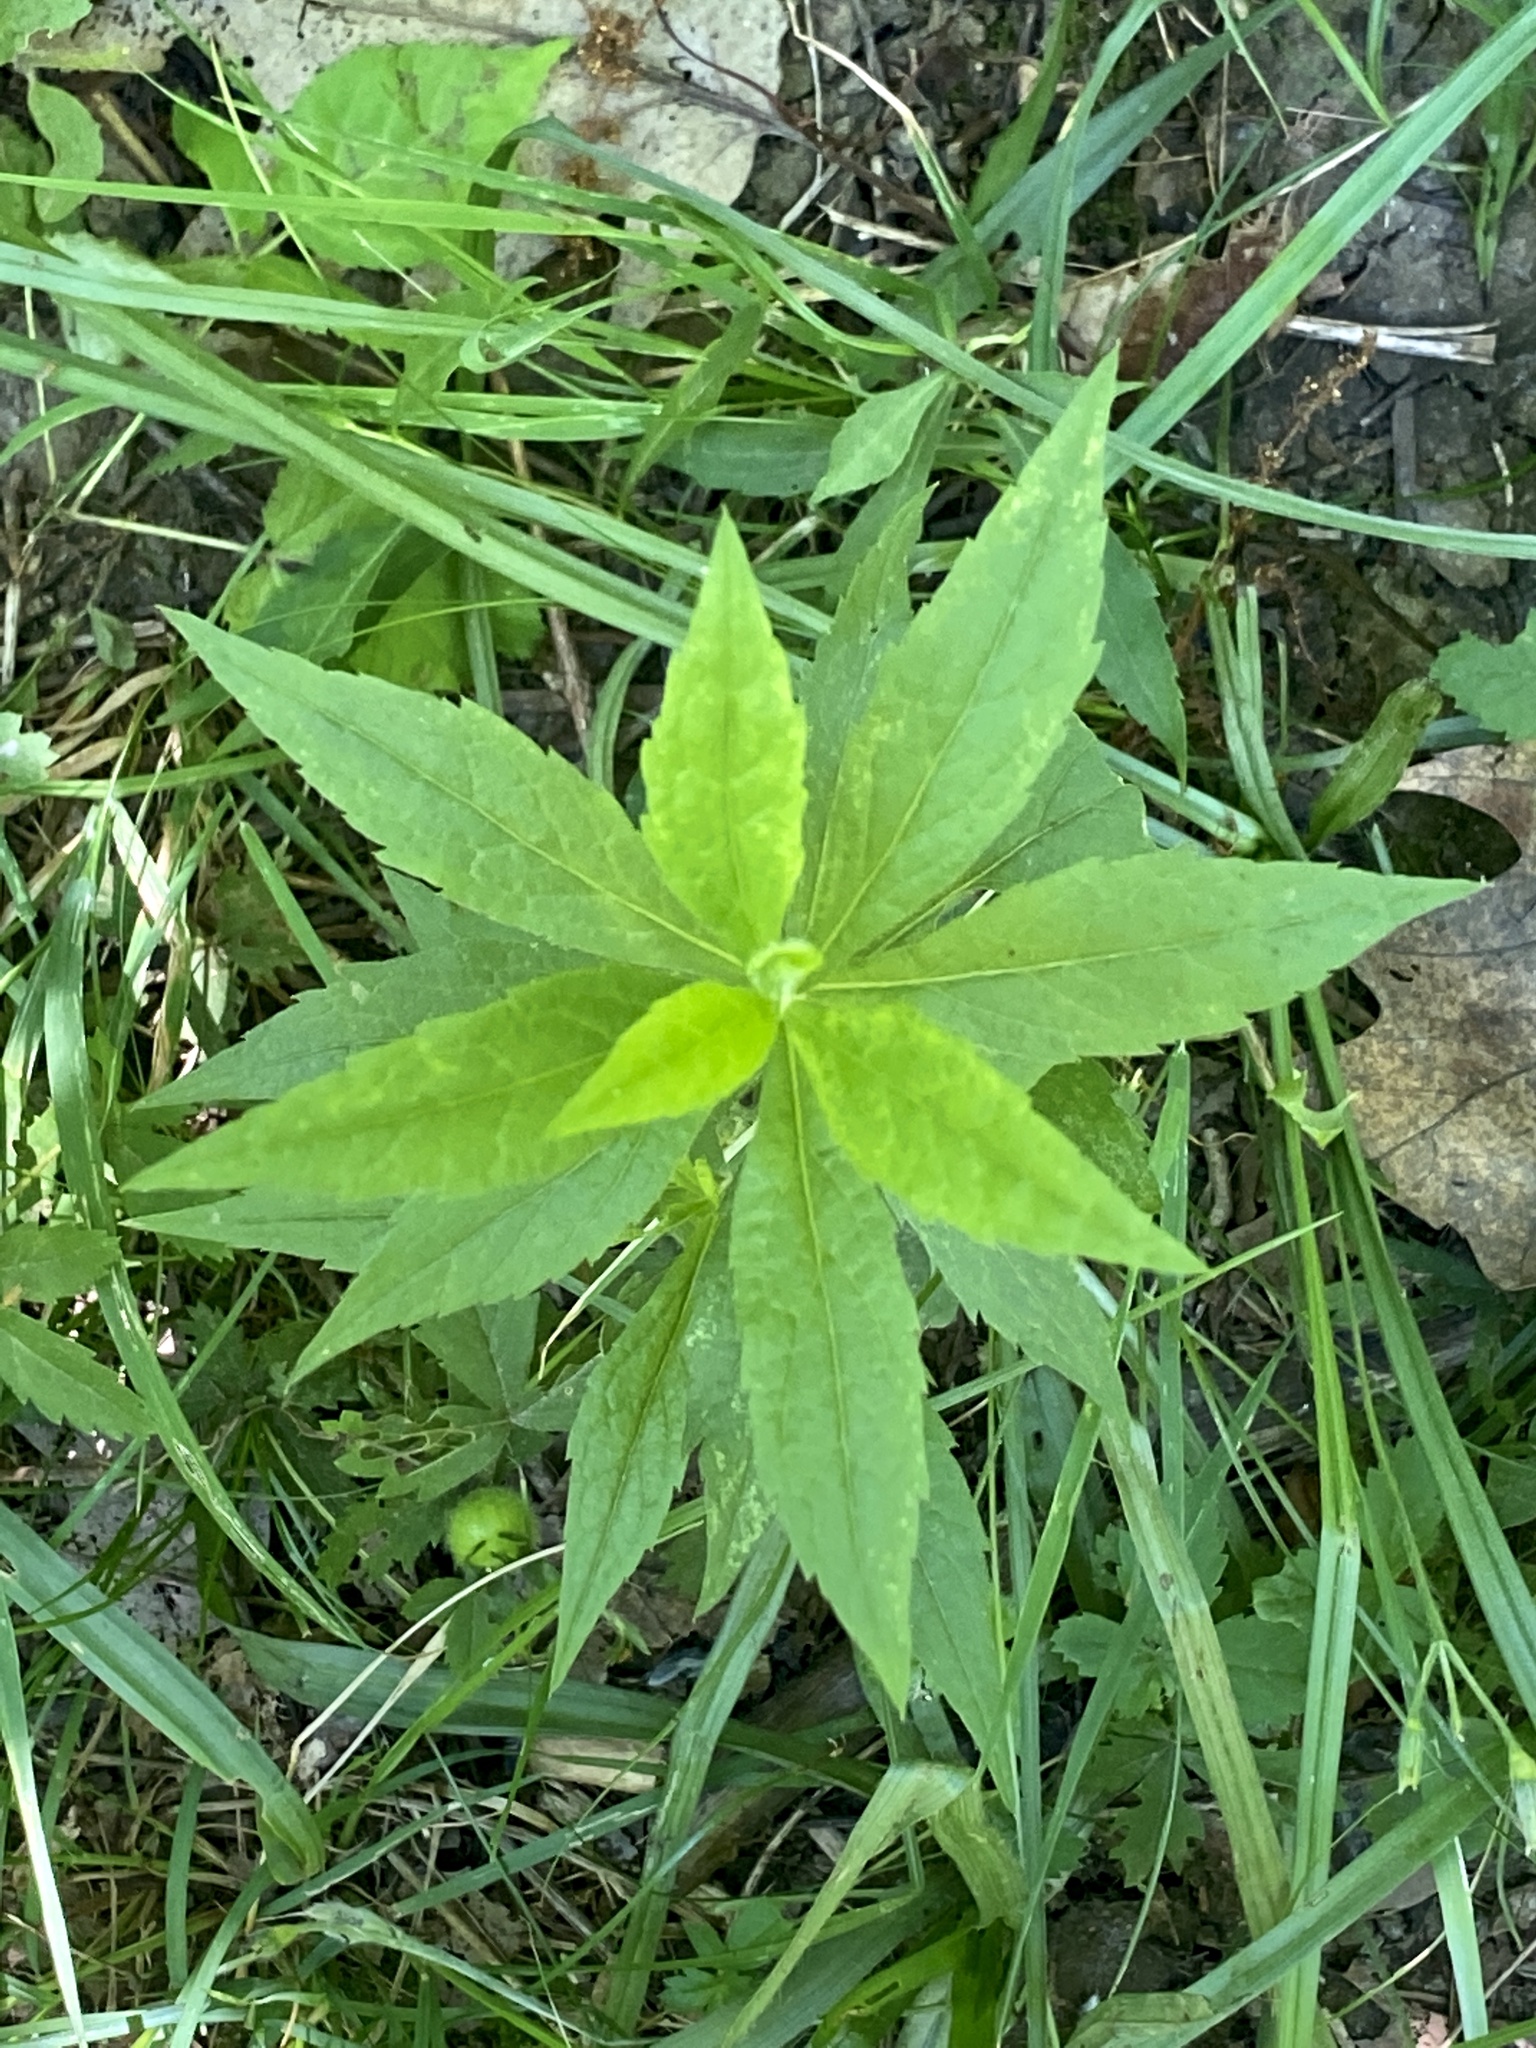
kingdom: Plantae
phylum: Tracheophyta
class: Magnoliopsida
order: Asterales
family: Asteraceae
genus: Solidago
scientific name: Solidago rugosa
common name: Rough-stemmed goldenrod
